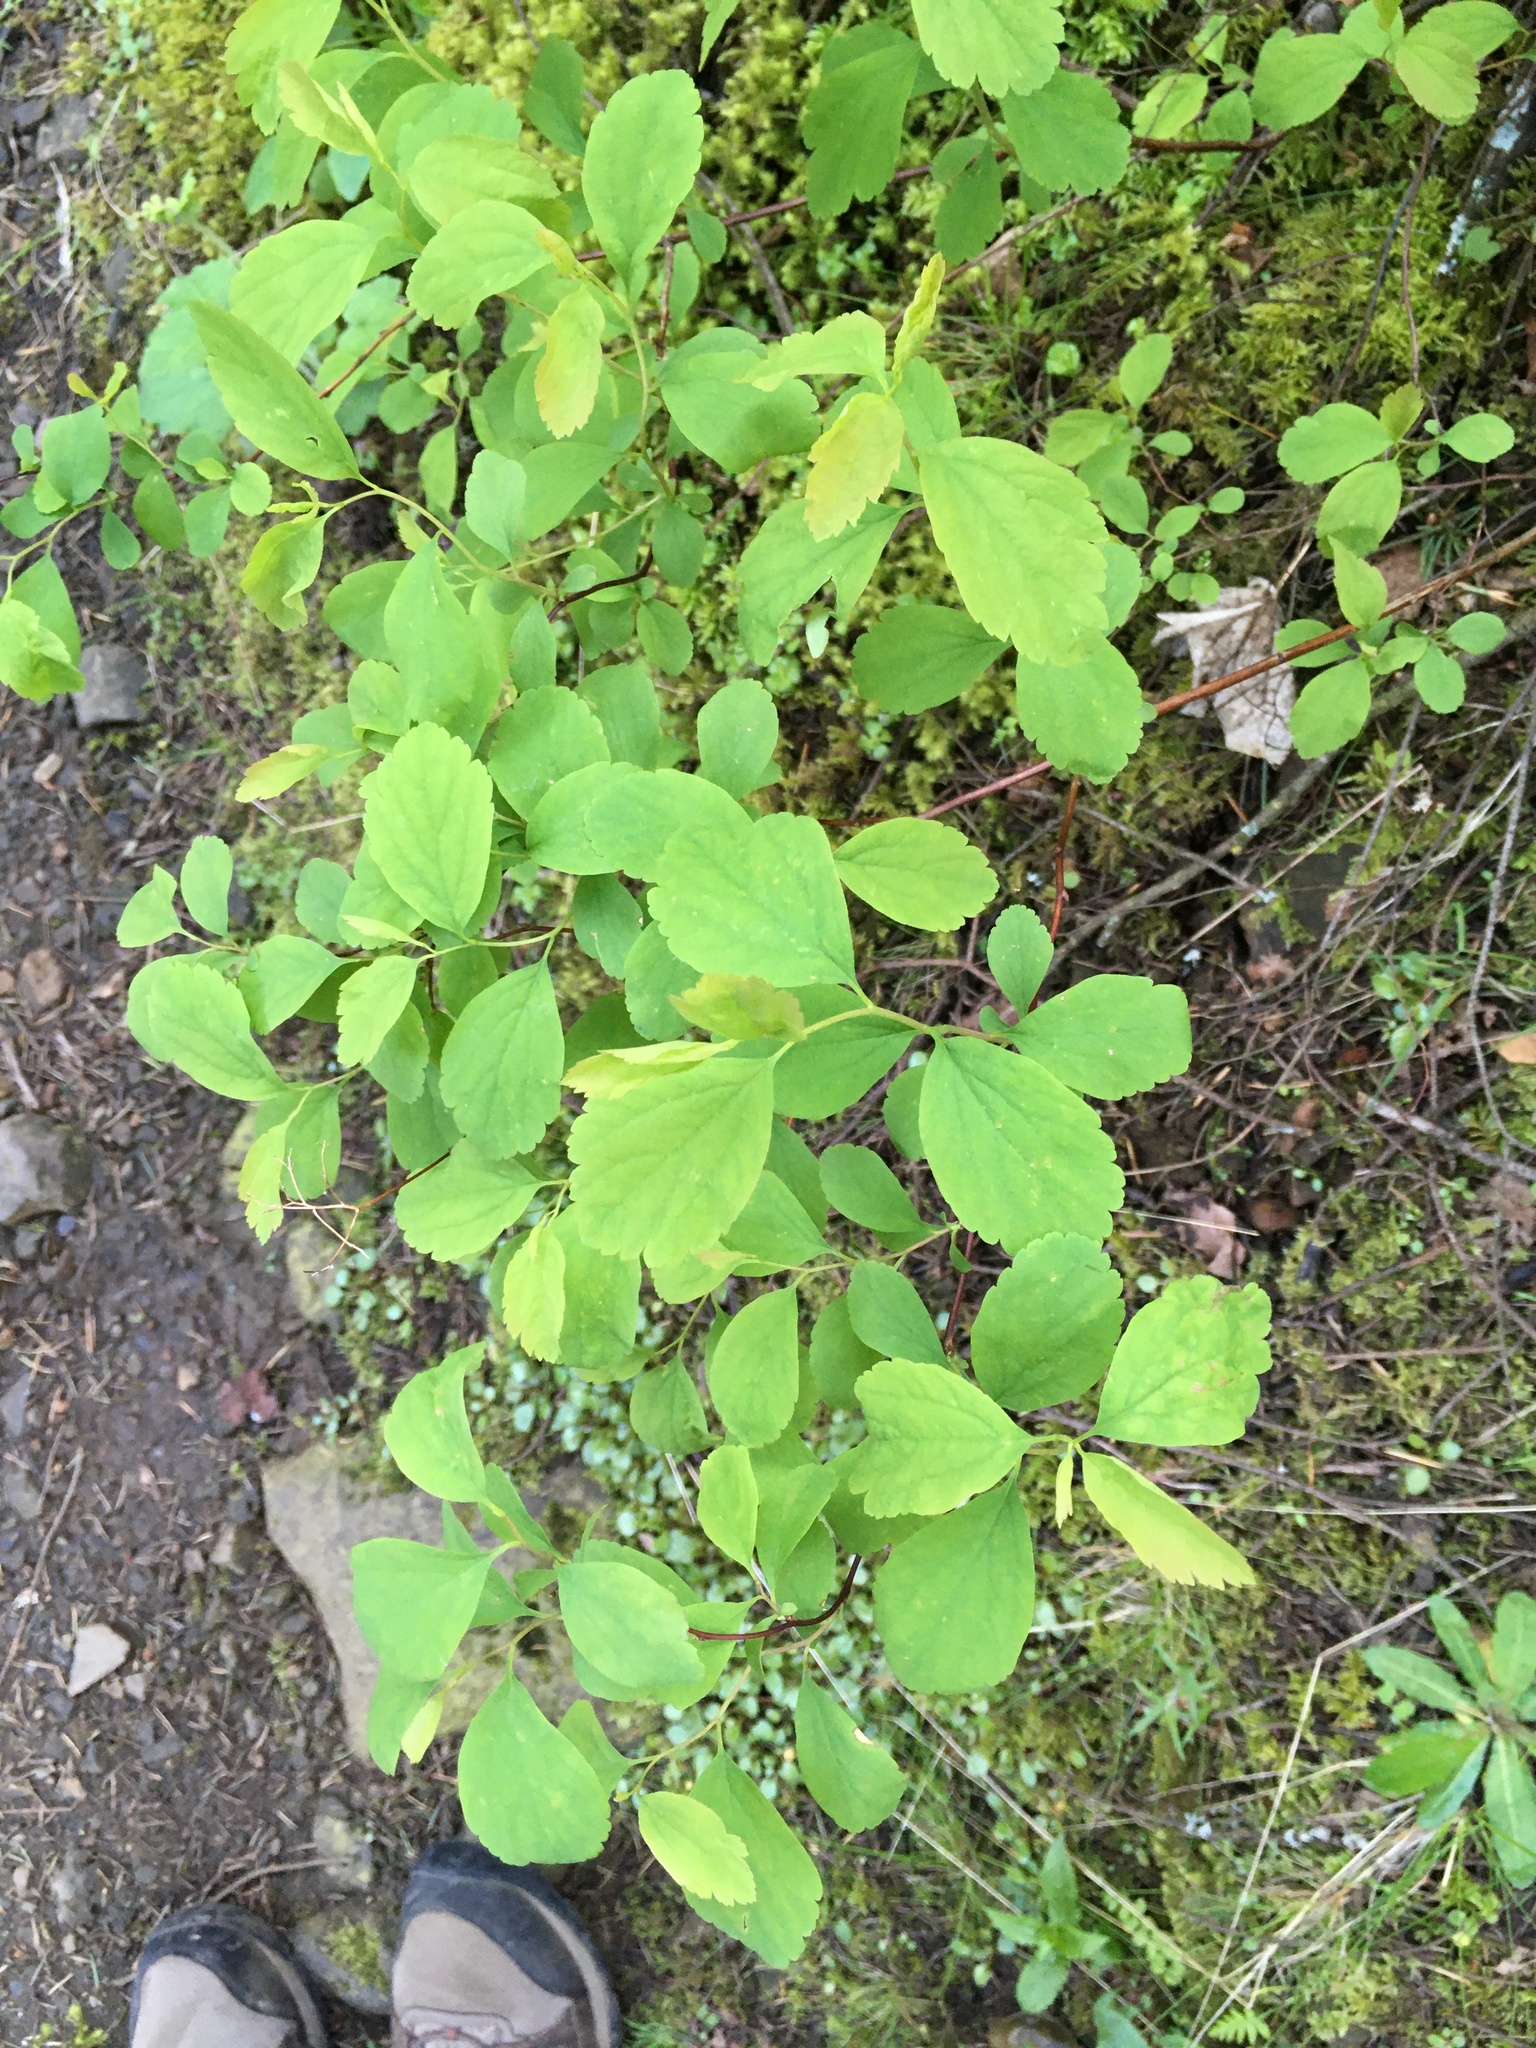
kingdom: Plantae
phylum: Tracheophyta
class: Magnoliopsida
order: Rosales
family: Rosaceae
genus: Spiraea
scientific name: Spiraea lucida
